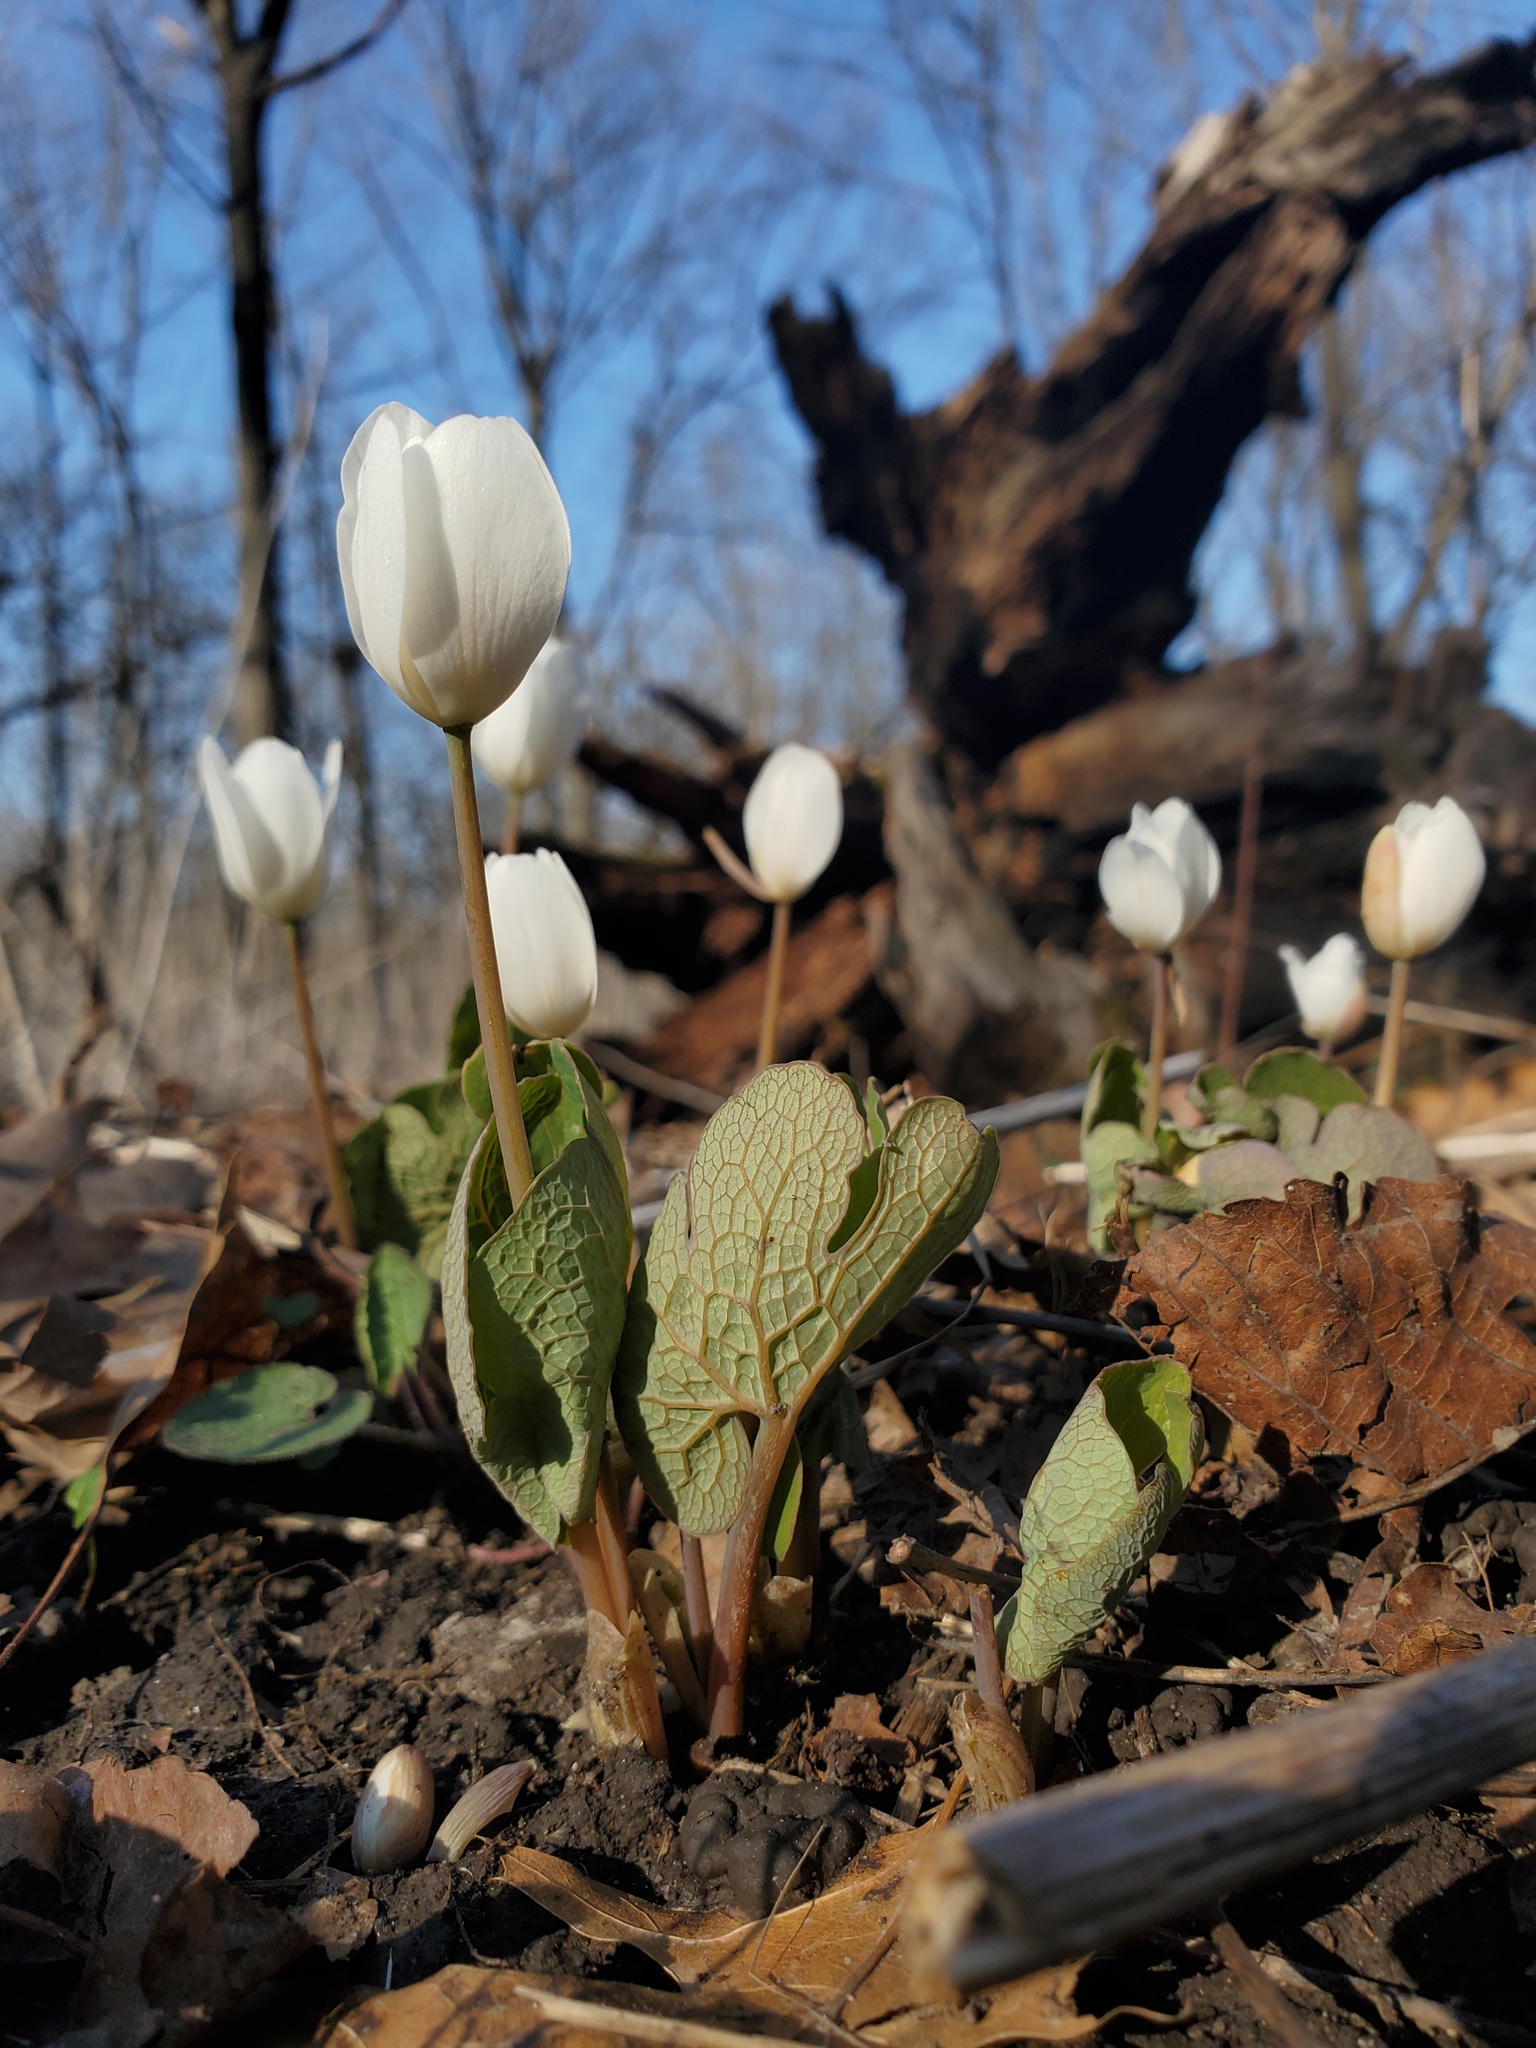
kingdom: Plantae
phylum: Tracheophyta
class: Magnoliopsida
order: Ranunculales
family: Papaveraceae
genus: Sanguinaria
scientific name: Sanguinaria canadensis
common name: Bloodroot
